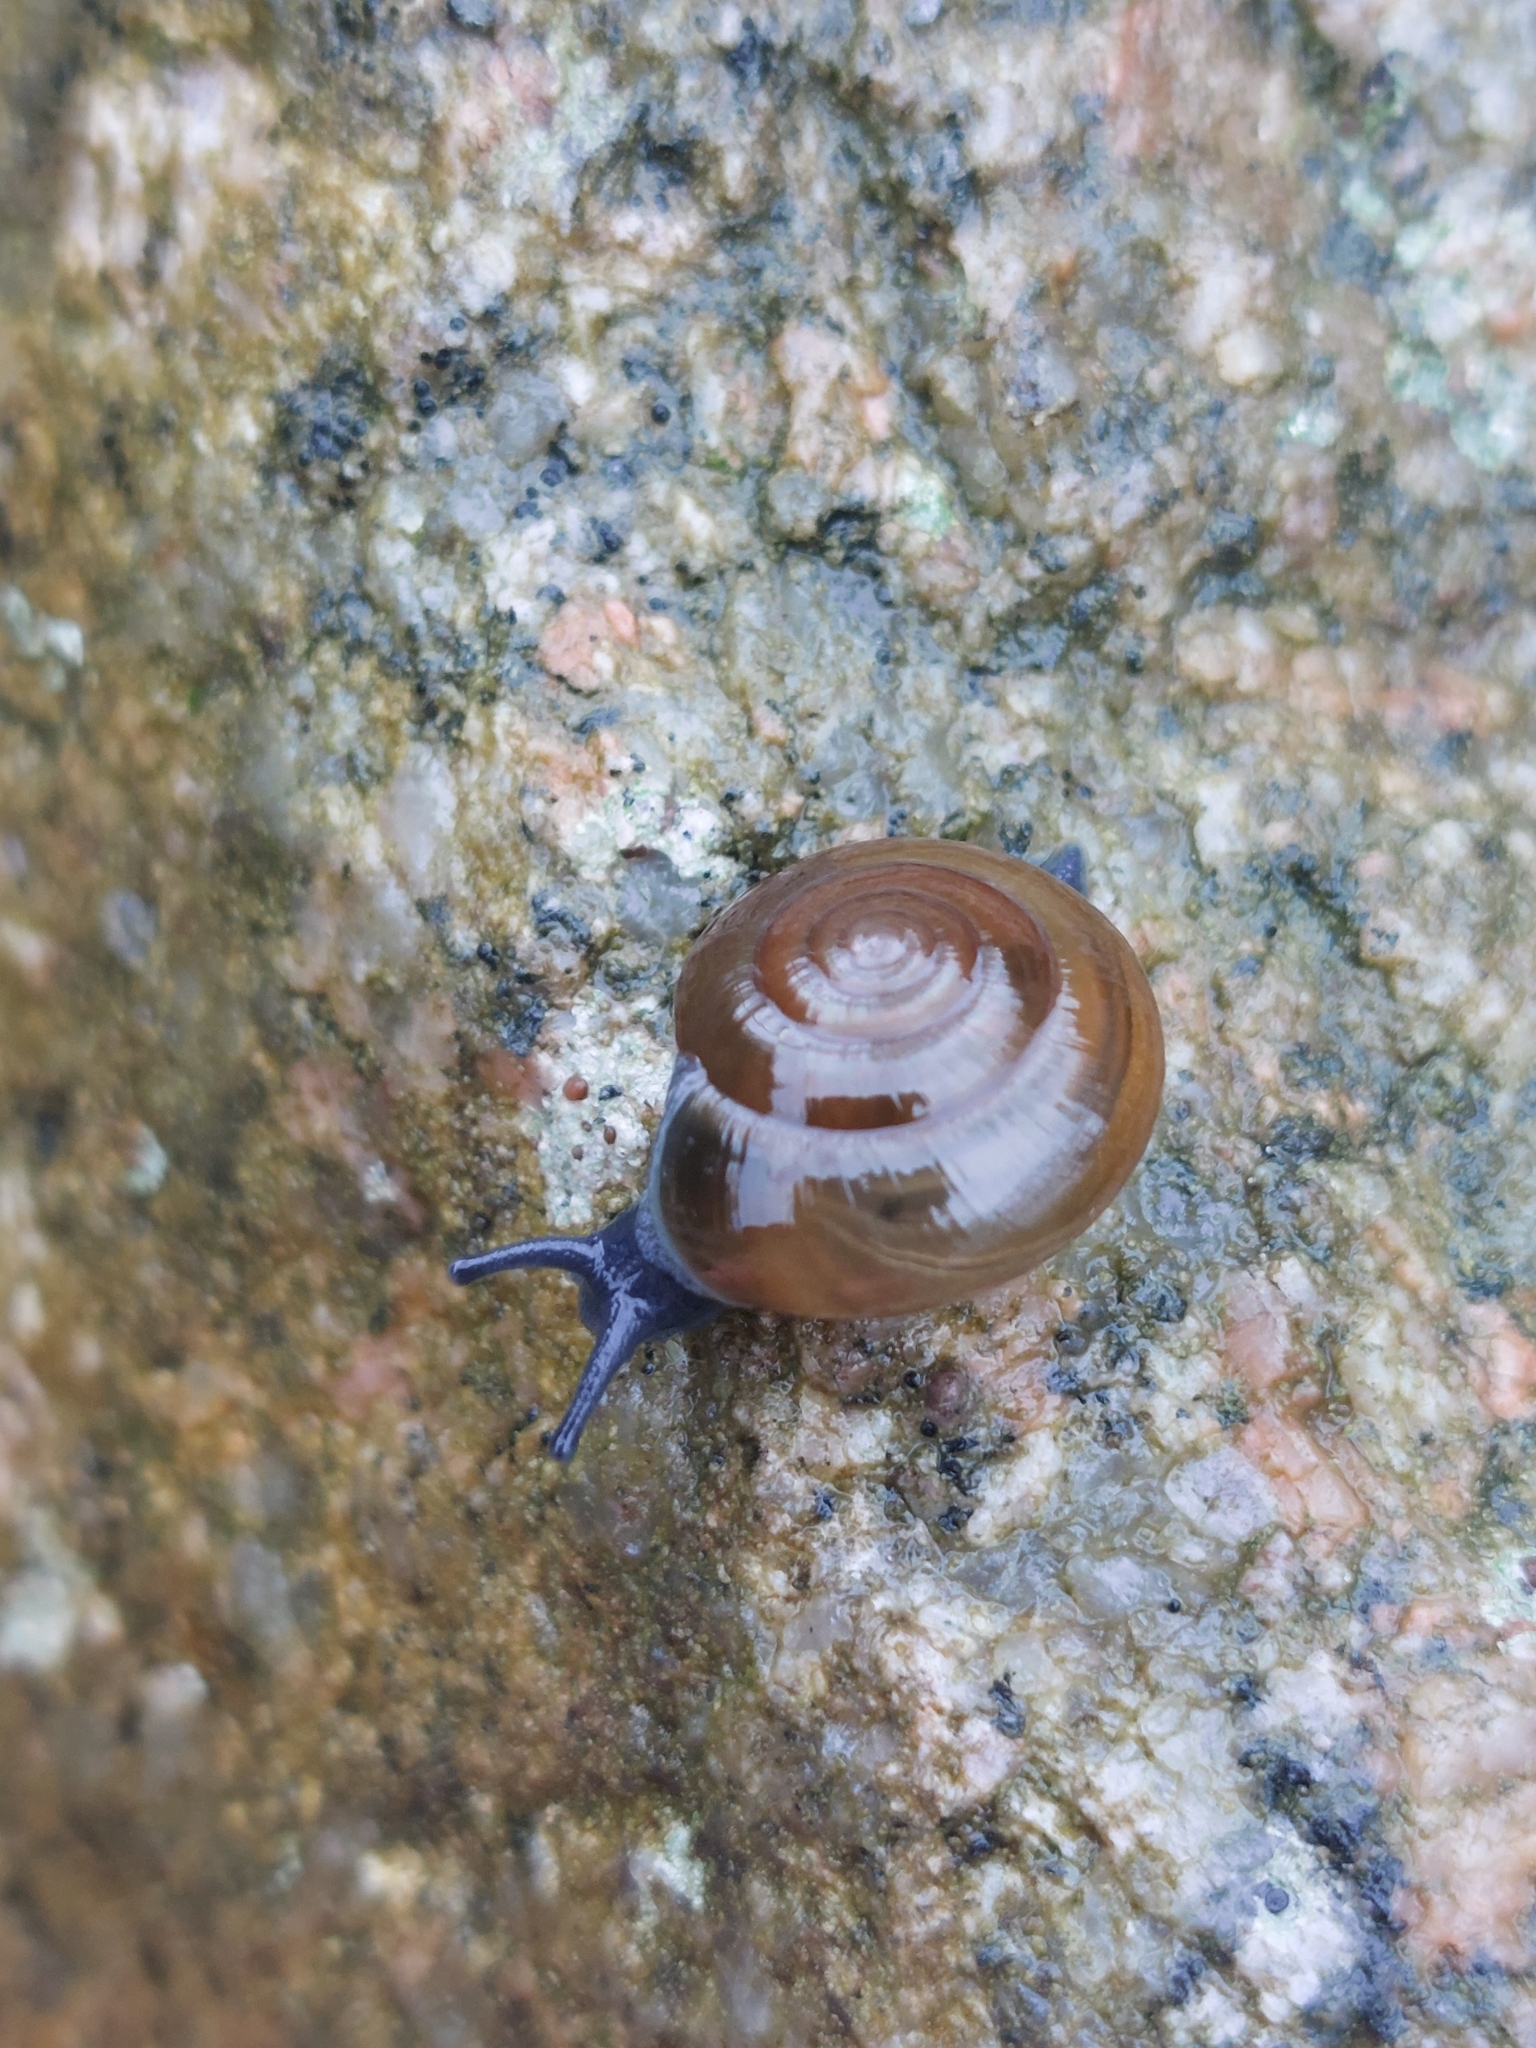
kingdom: Animalia
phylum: Mollusca
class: Gastropoda
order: Stylommatophora
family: Oxychilidae
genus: Morlina
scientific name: Morlina glabra
